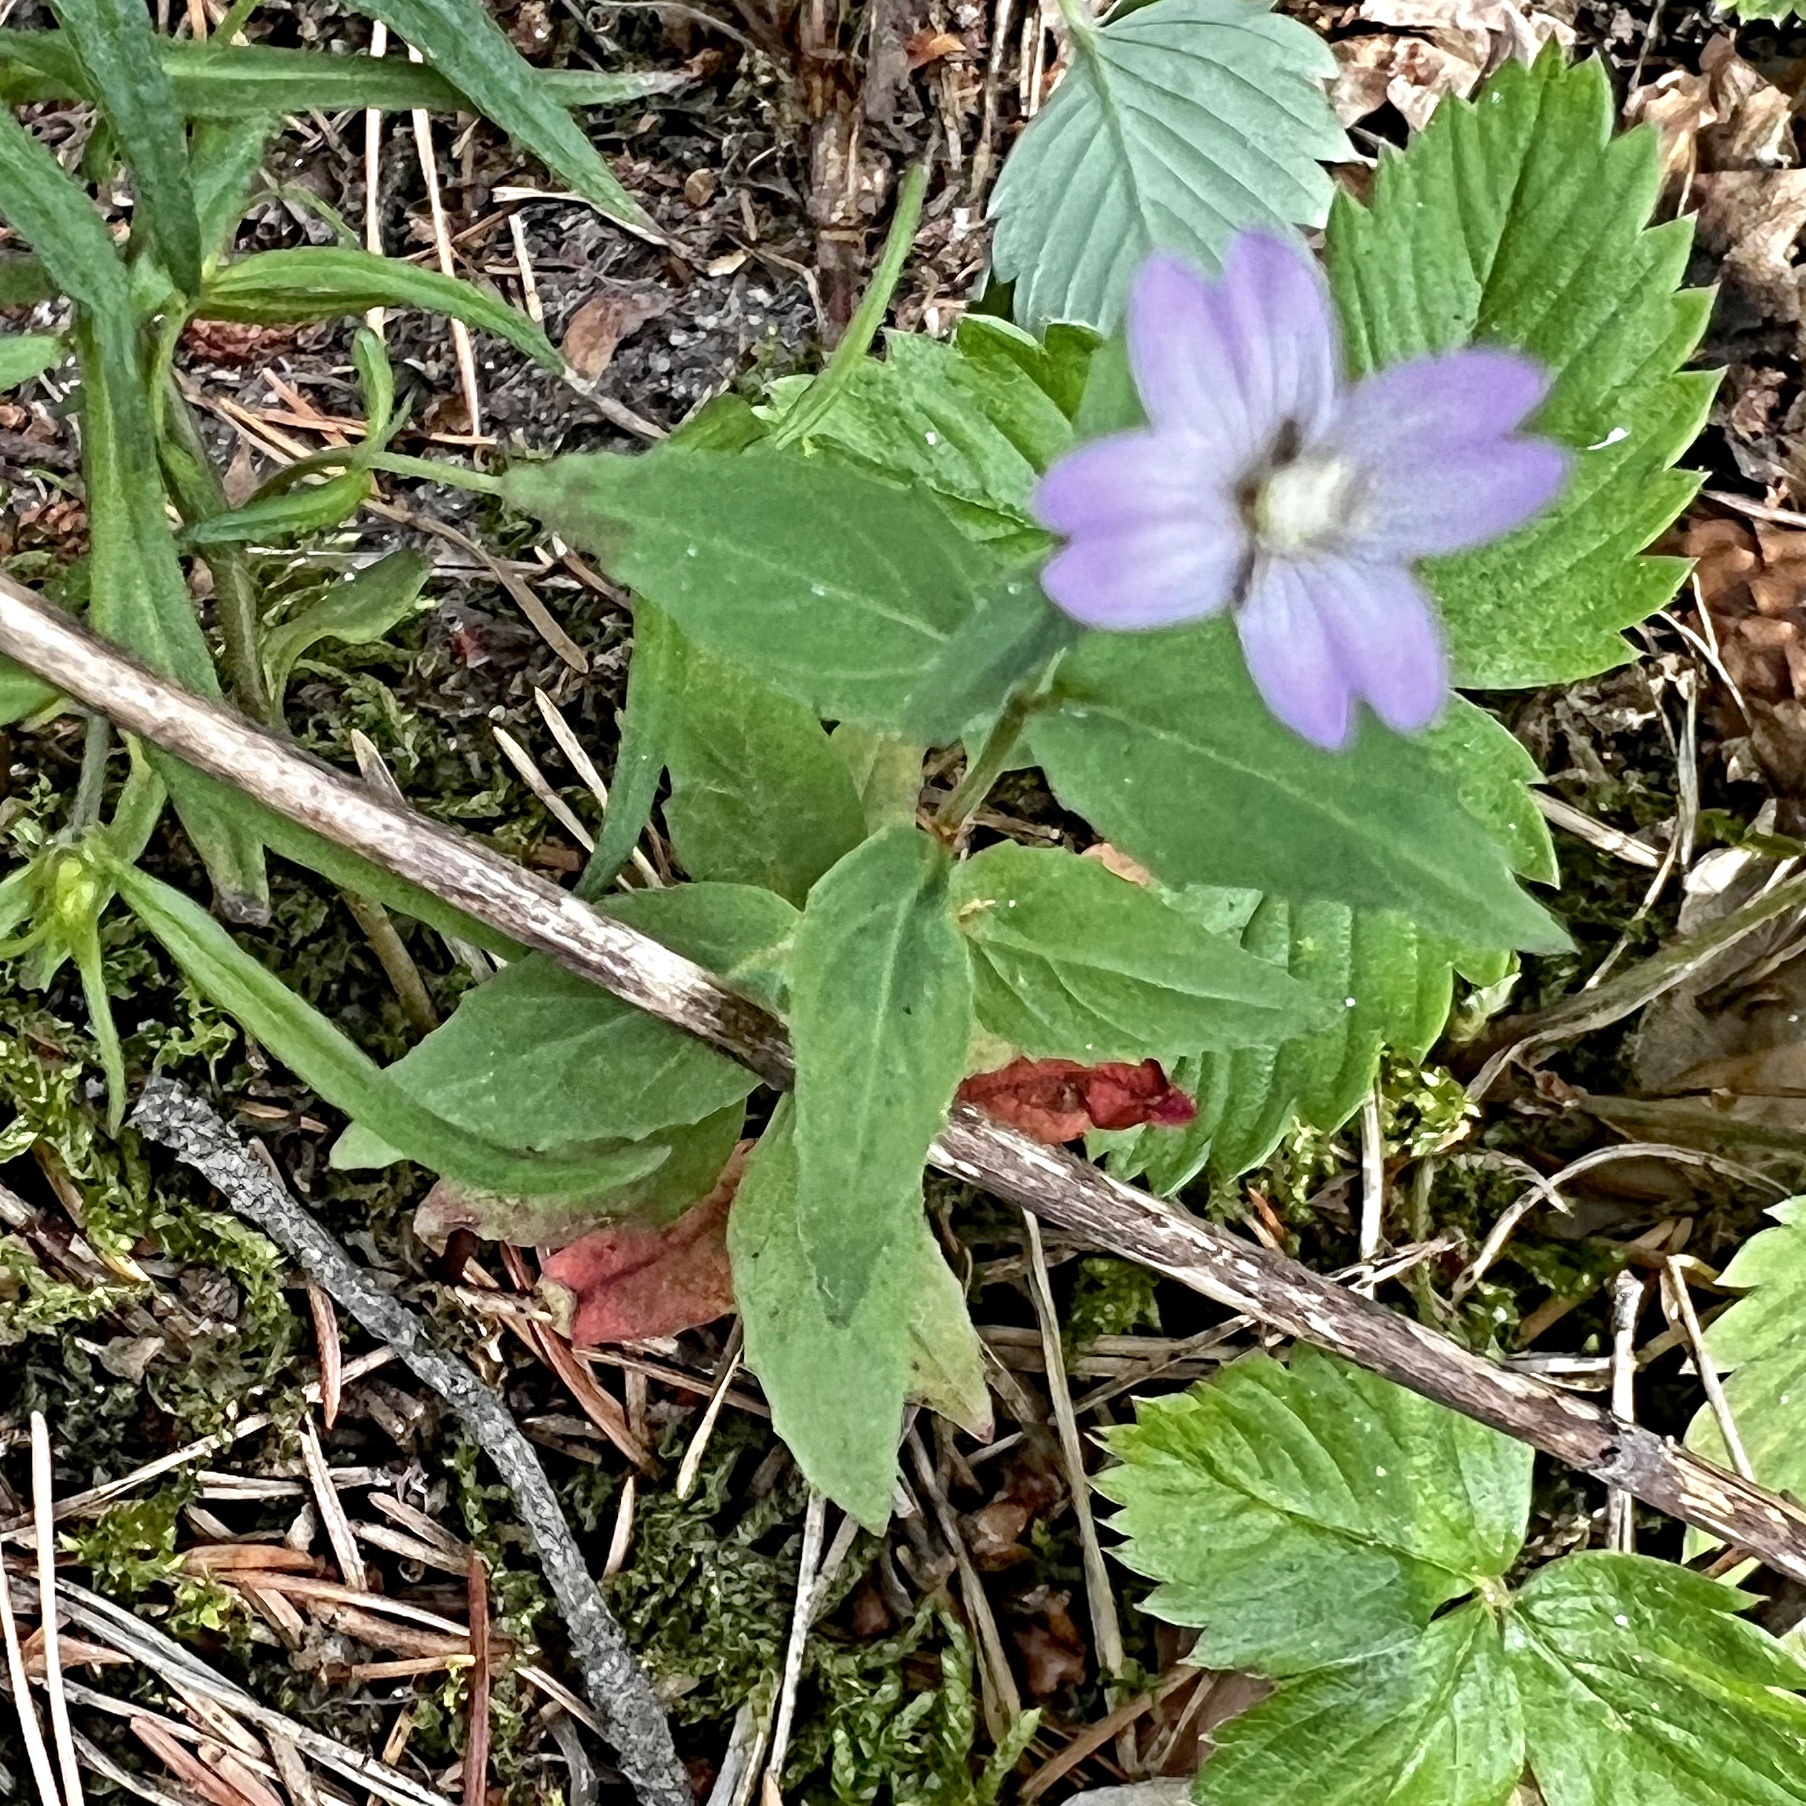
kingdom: Plantae
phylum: Tracheophyta
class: Magnoliopsida
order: Myrtales
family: Onagraceae
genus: Epilobium
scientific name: Epilobium montanum
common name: Broad-leaved willowherb
